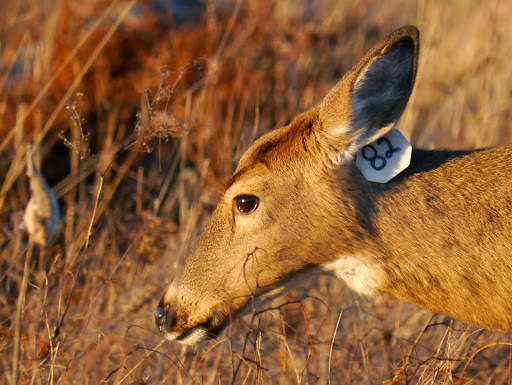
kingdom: Animalia
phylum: Chordata
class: Mammalia
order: Artiodactyla
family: Cervidae
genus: Odocoileus
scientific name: Odocoileus virginianus
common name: White-tailed deer
